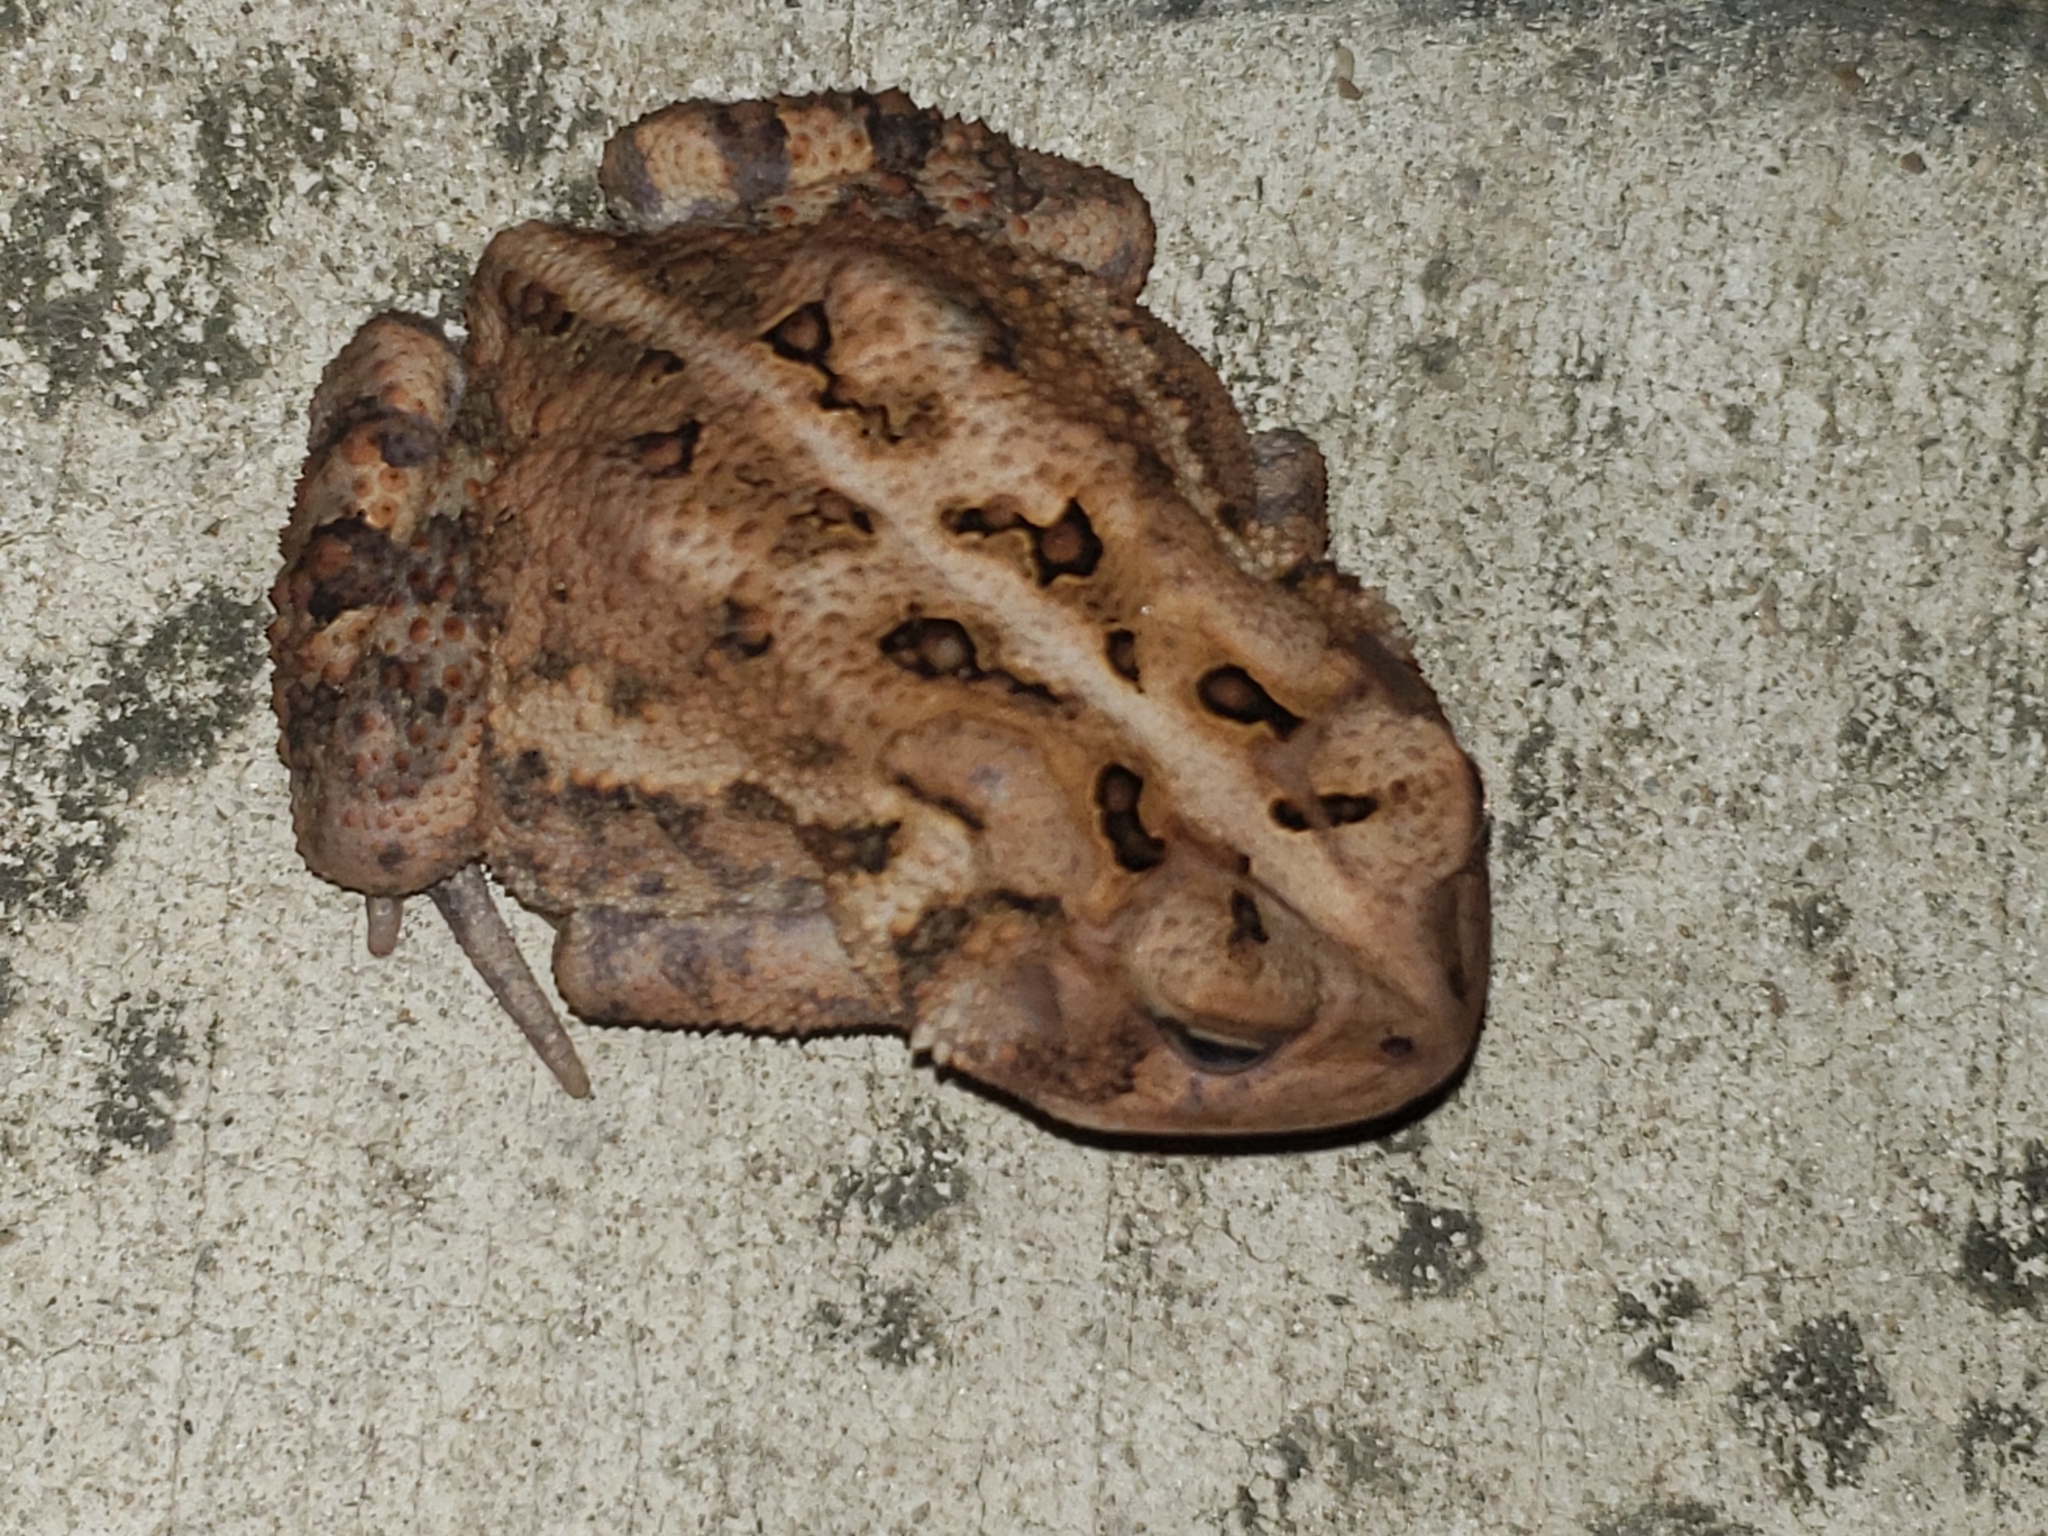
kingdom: Animalia
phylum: Chordata
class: Amphibia
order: Anura
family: Bufonidae
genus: Anaxyrus
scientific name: Anaxyrus americanus
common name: American toad
